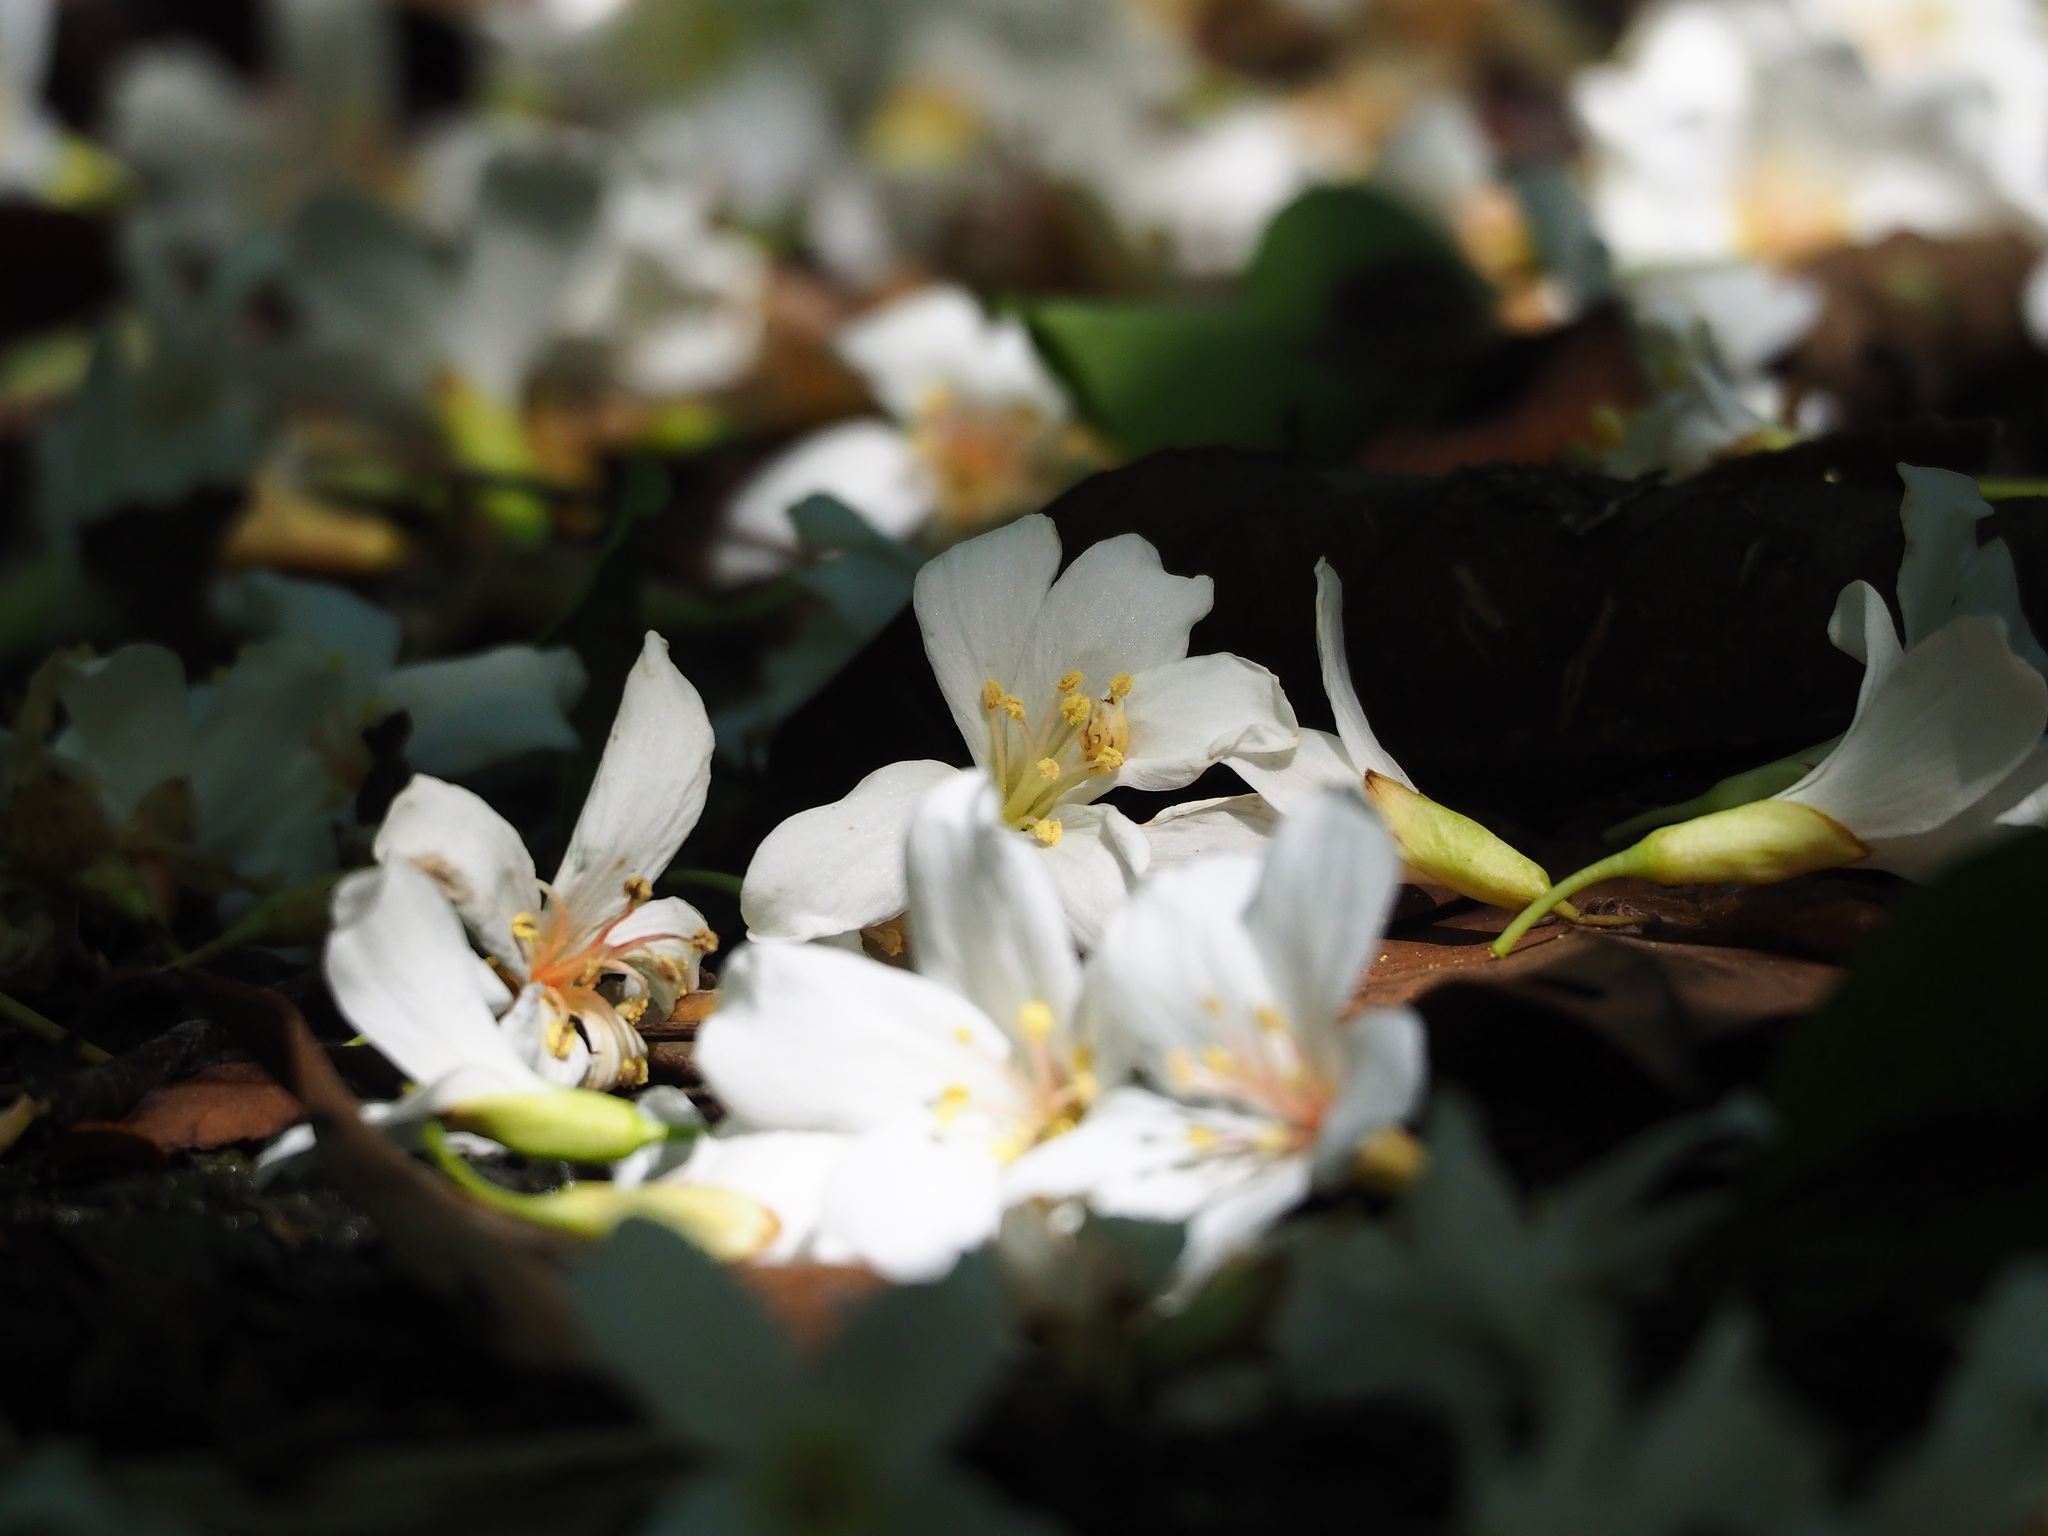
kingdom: Plantae
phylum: Tracheophyta
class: Magnoliopsida
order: Malpighiales
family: Euphorbiaceae
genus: Vernicia
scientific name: Vernicia montana
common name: Mu oil tree
